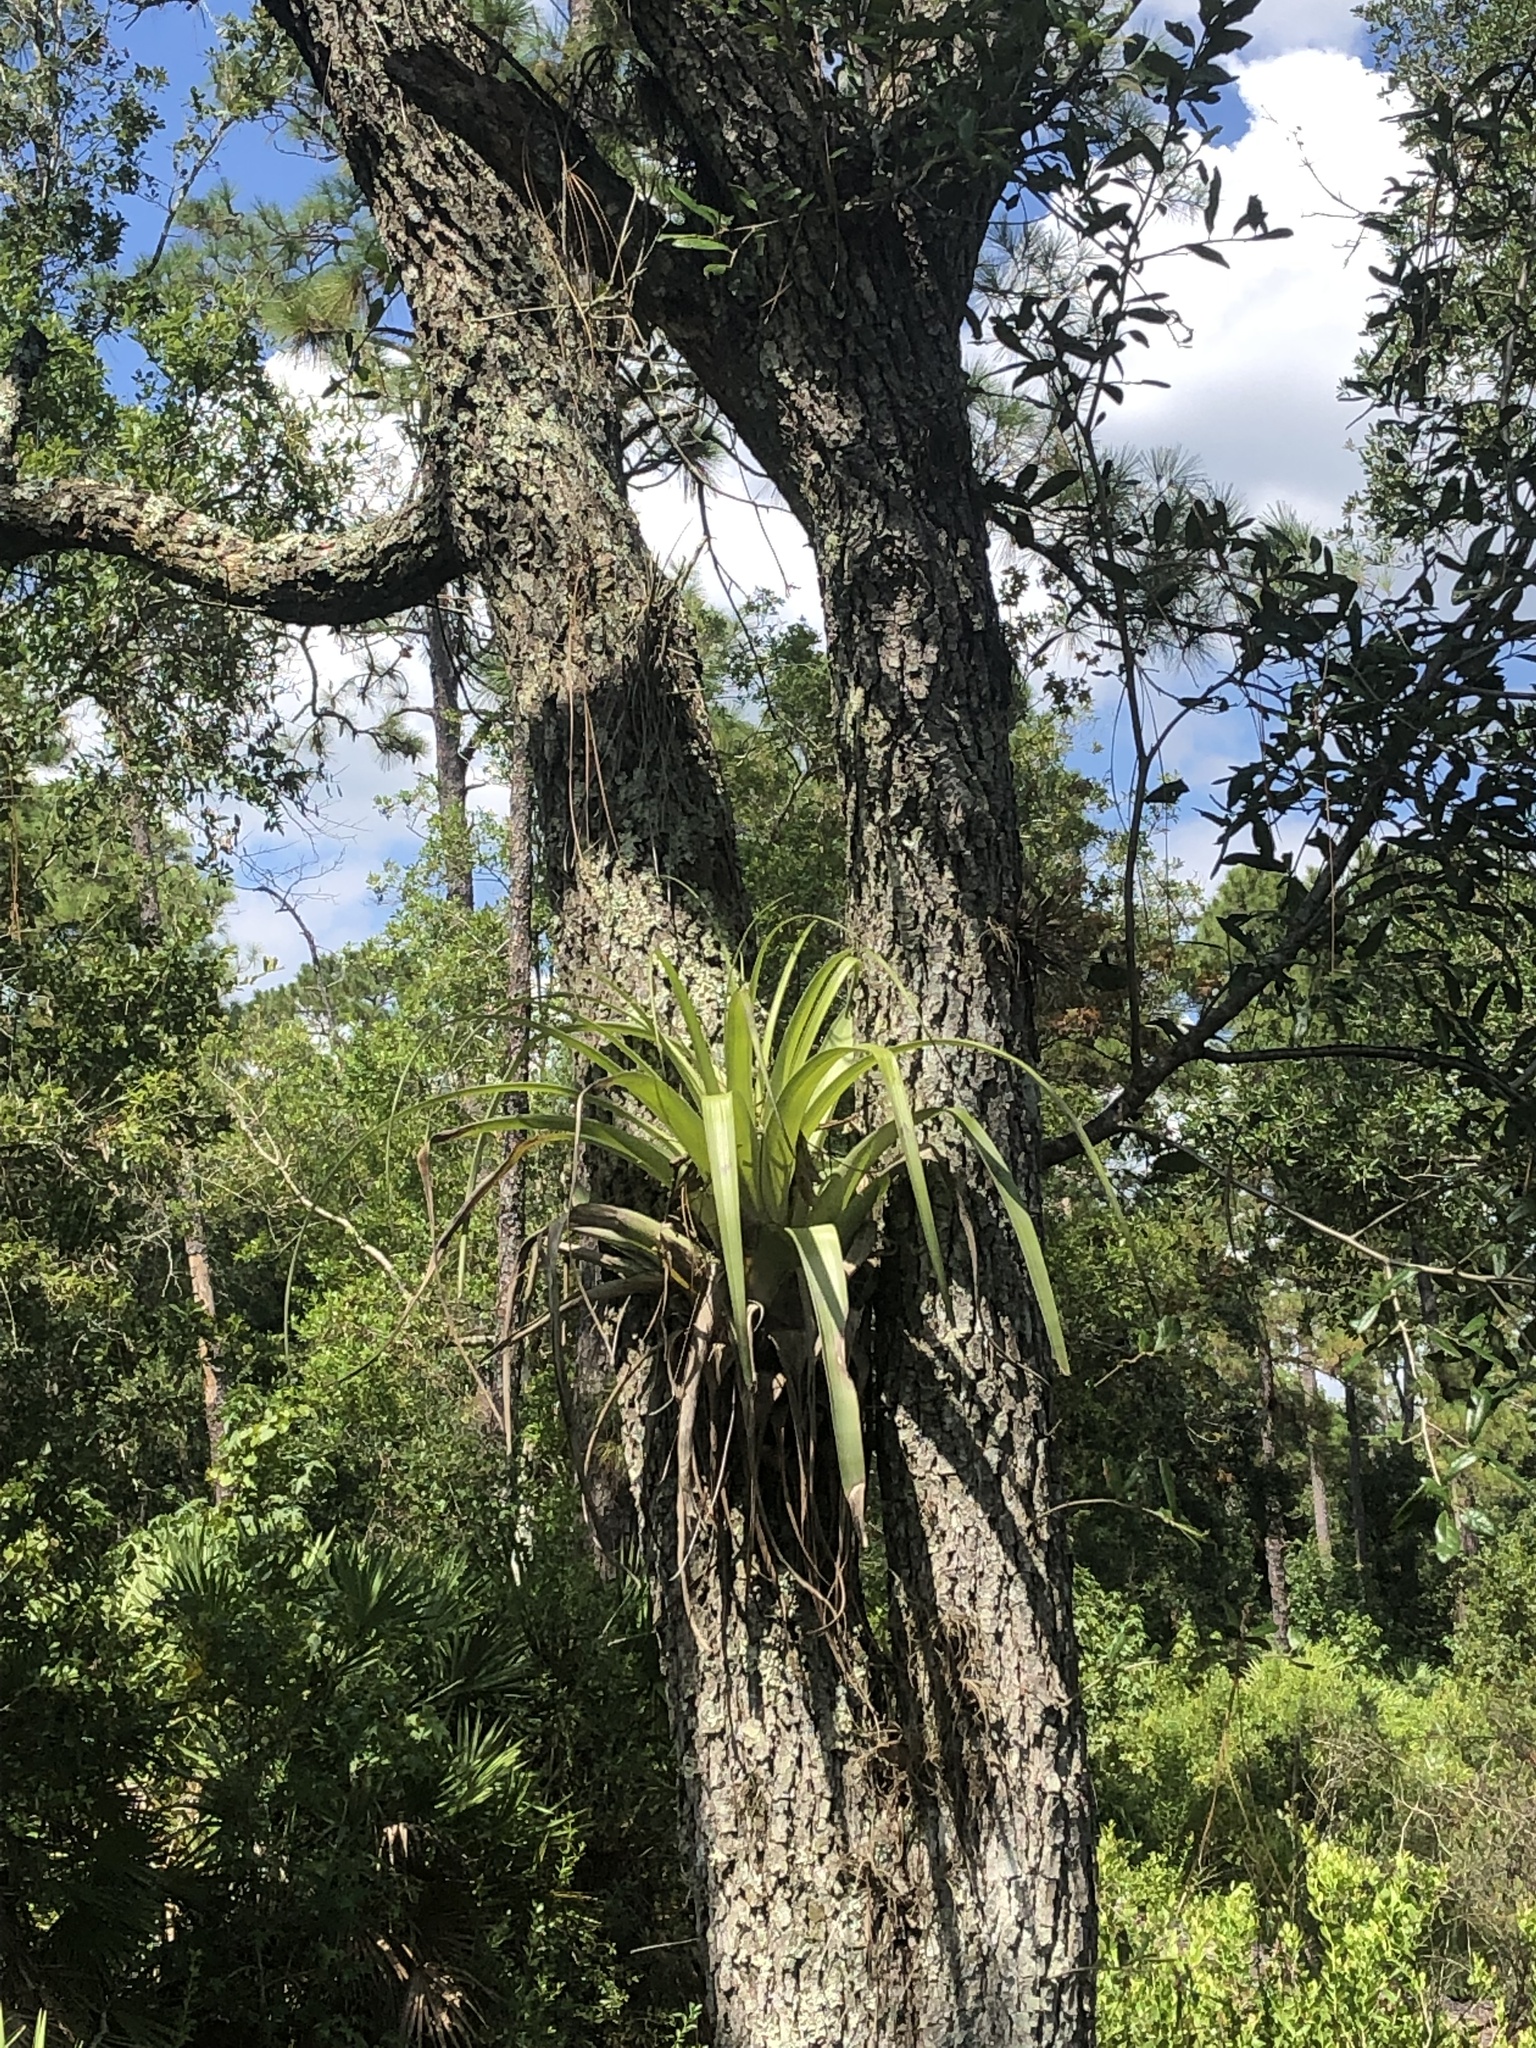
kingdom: Plantae
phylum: Tracheophyta
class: Liliopsida
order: Poales
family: Bromeliaceae
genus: Tillandsia
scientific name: Tillandsia utriculata
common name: Wild pine
